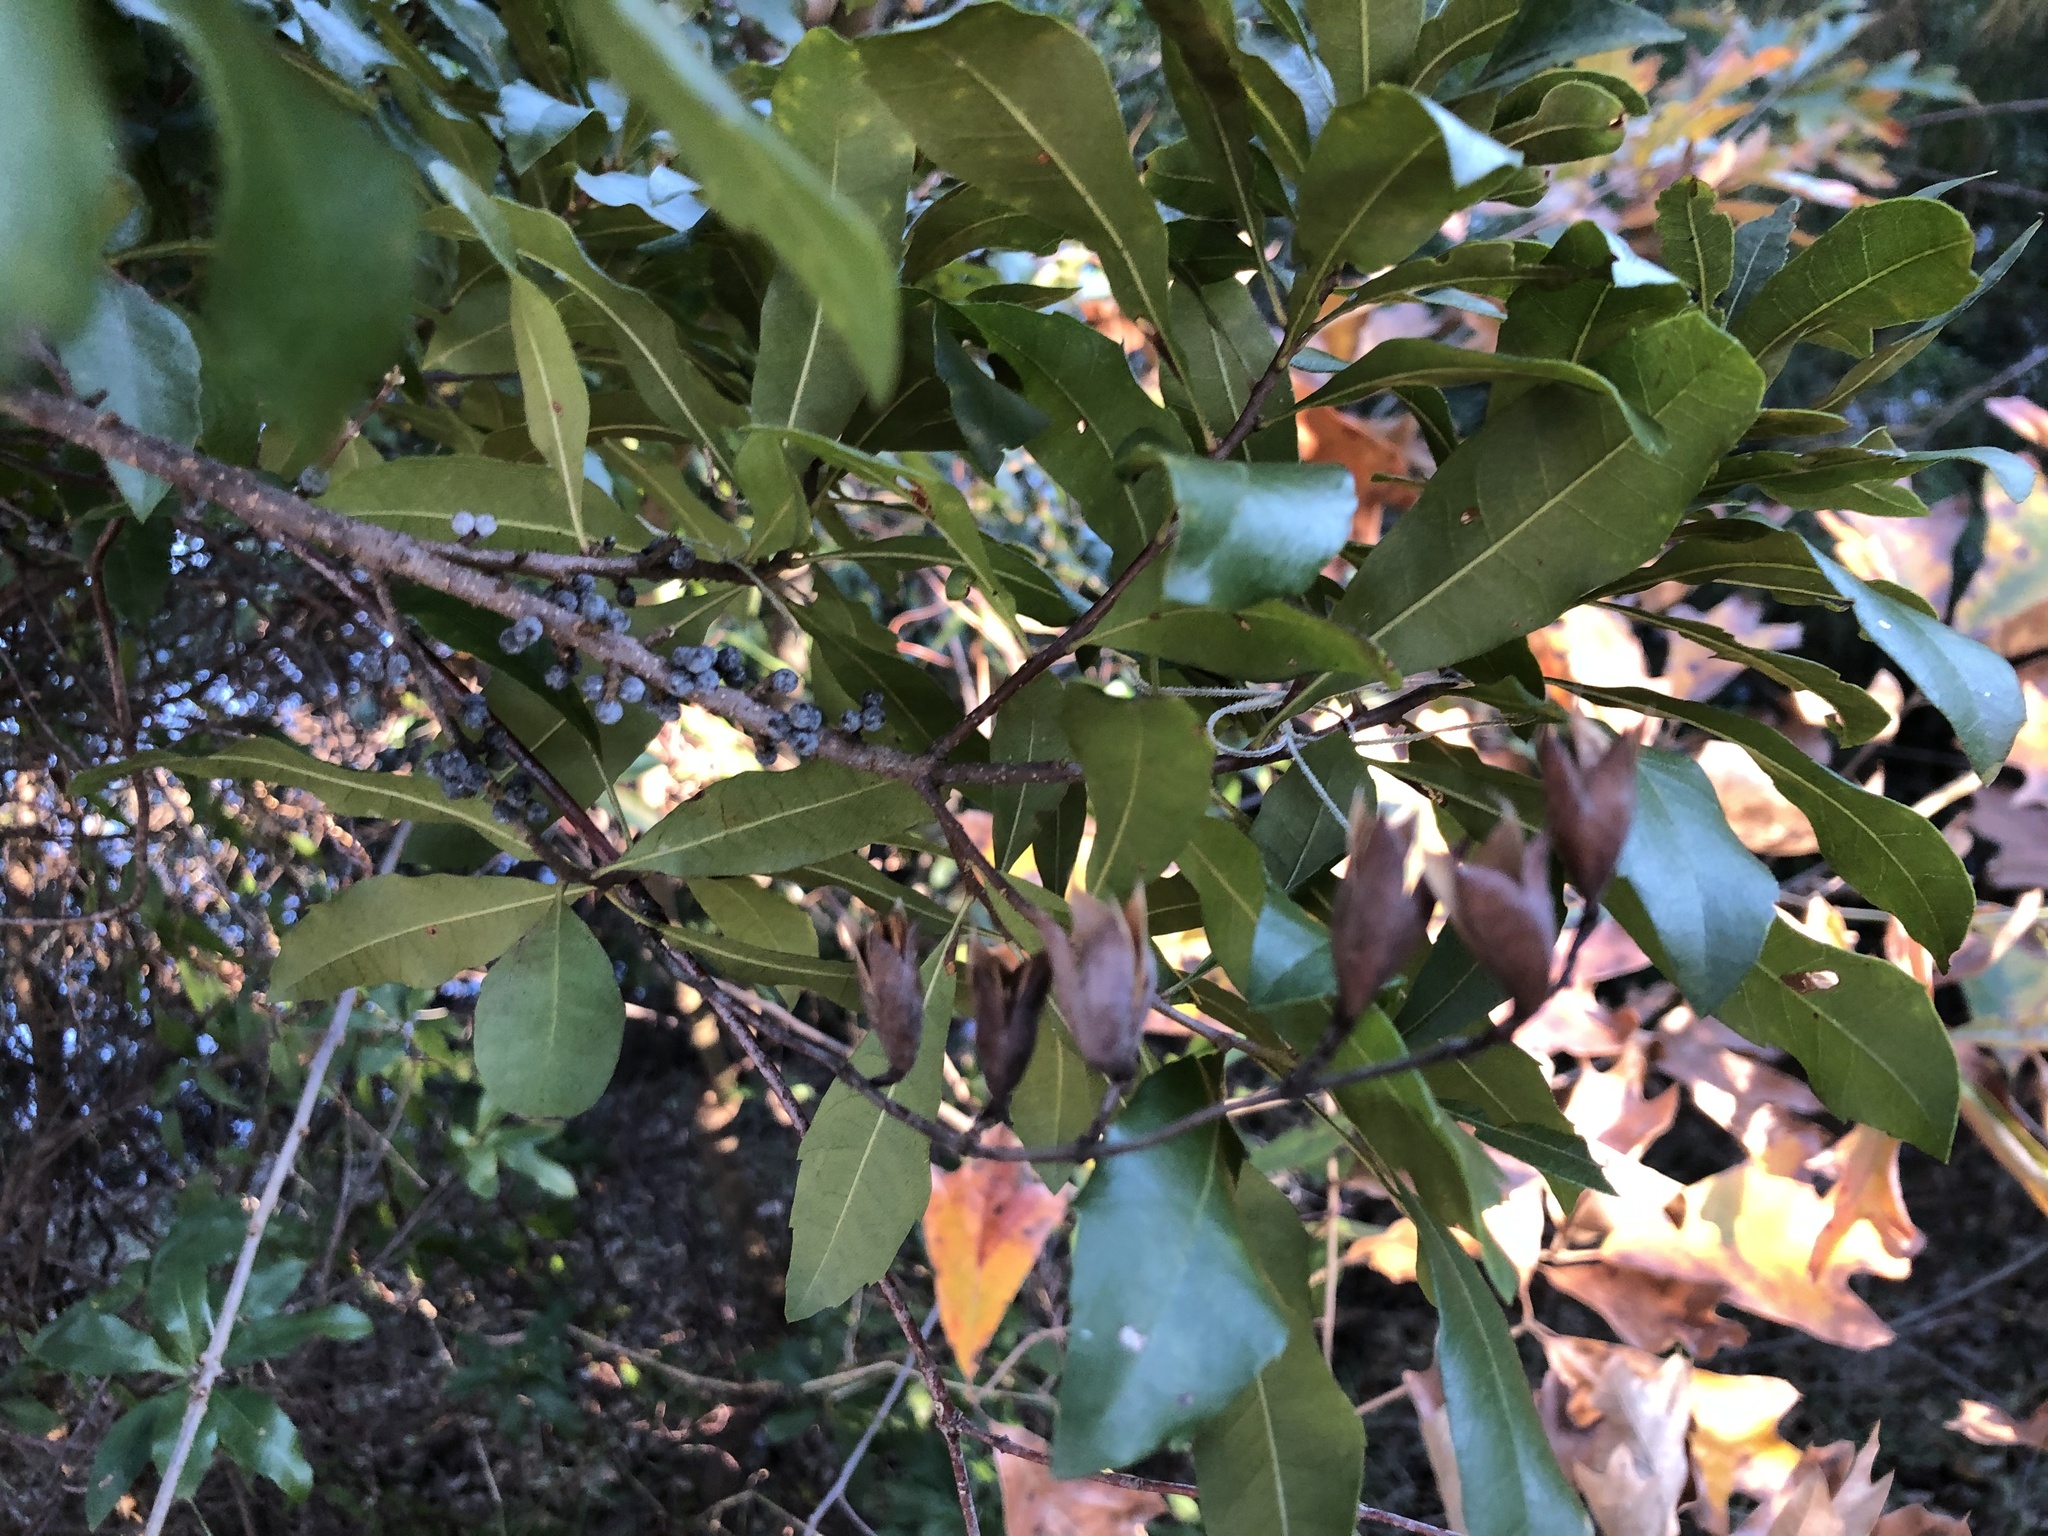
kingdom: Plantae
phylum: Tracheophyta
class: Magnoliopsida
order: Fagales
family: Myricaceae
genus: Morella
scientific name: Morella cerifera
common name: Wax myrtle
